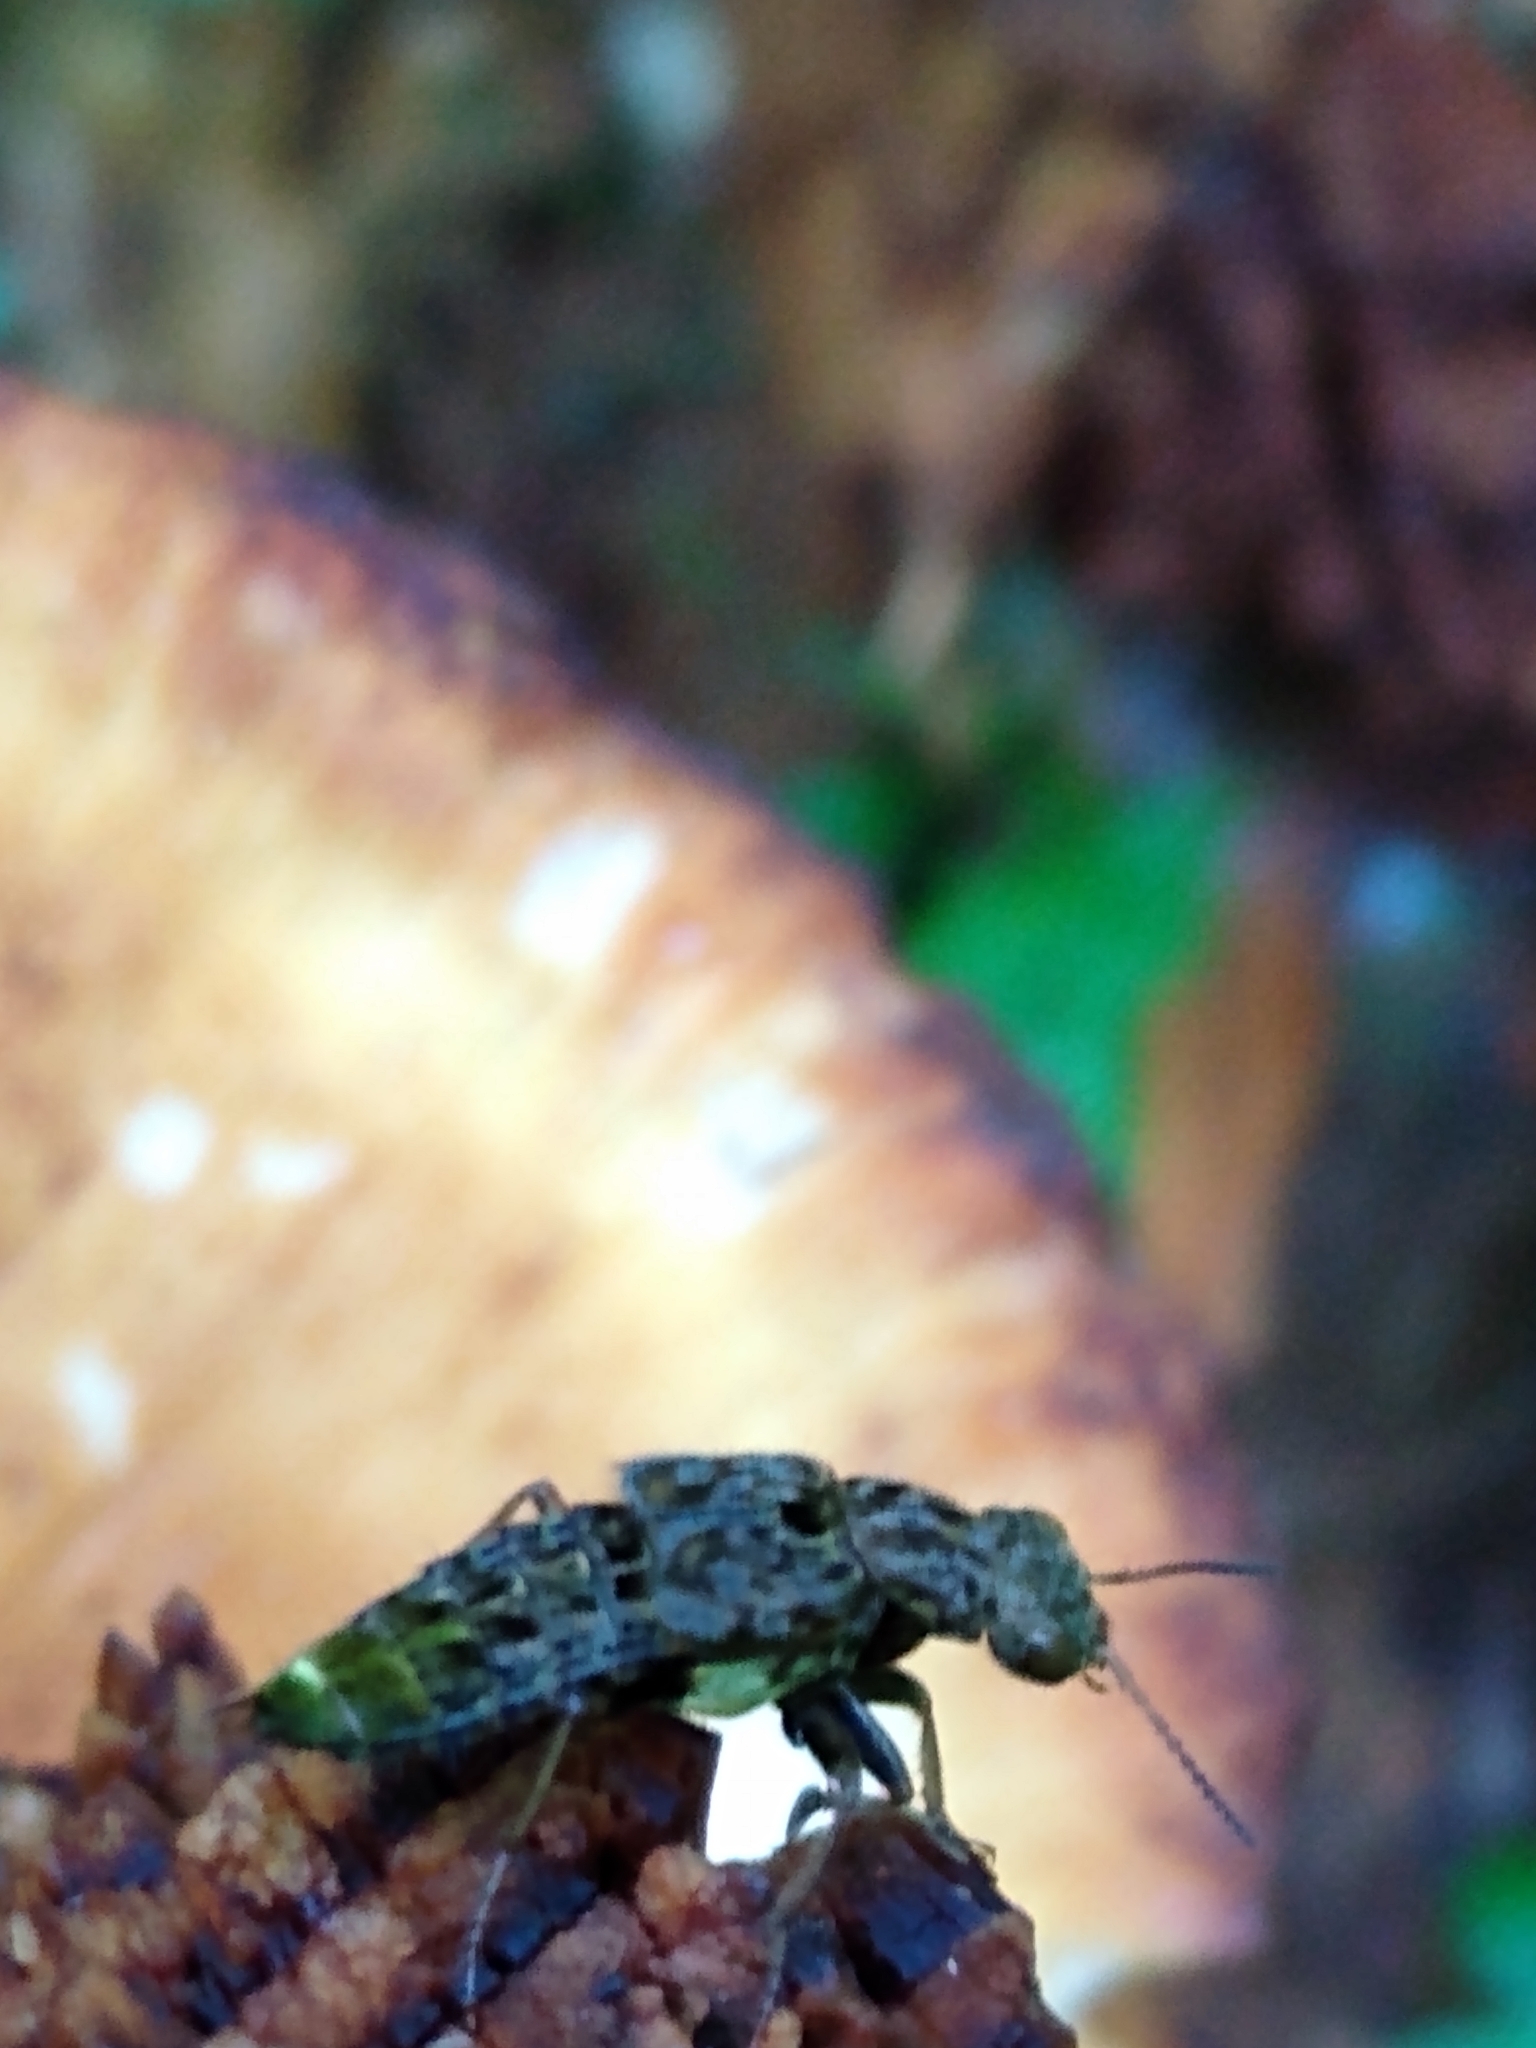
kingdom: Animalia
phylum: Arthropoda
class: Insecta
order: Coleoptera
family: Staphylinidae
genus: Ontholestes
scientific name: Ontholestes cingulatus
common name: Gold-and-brown rove beetle
